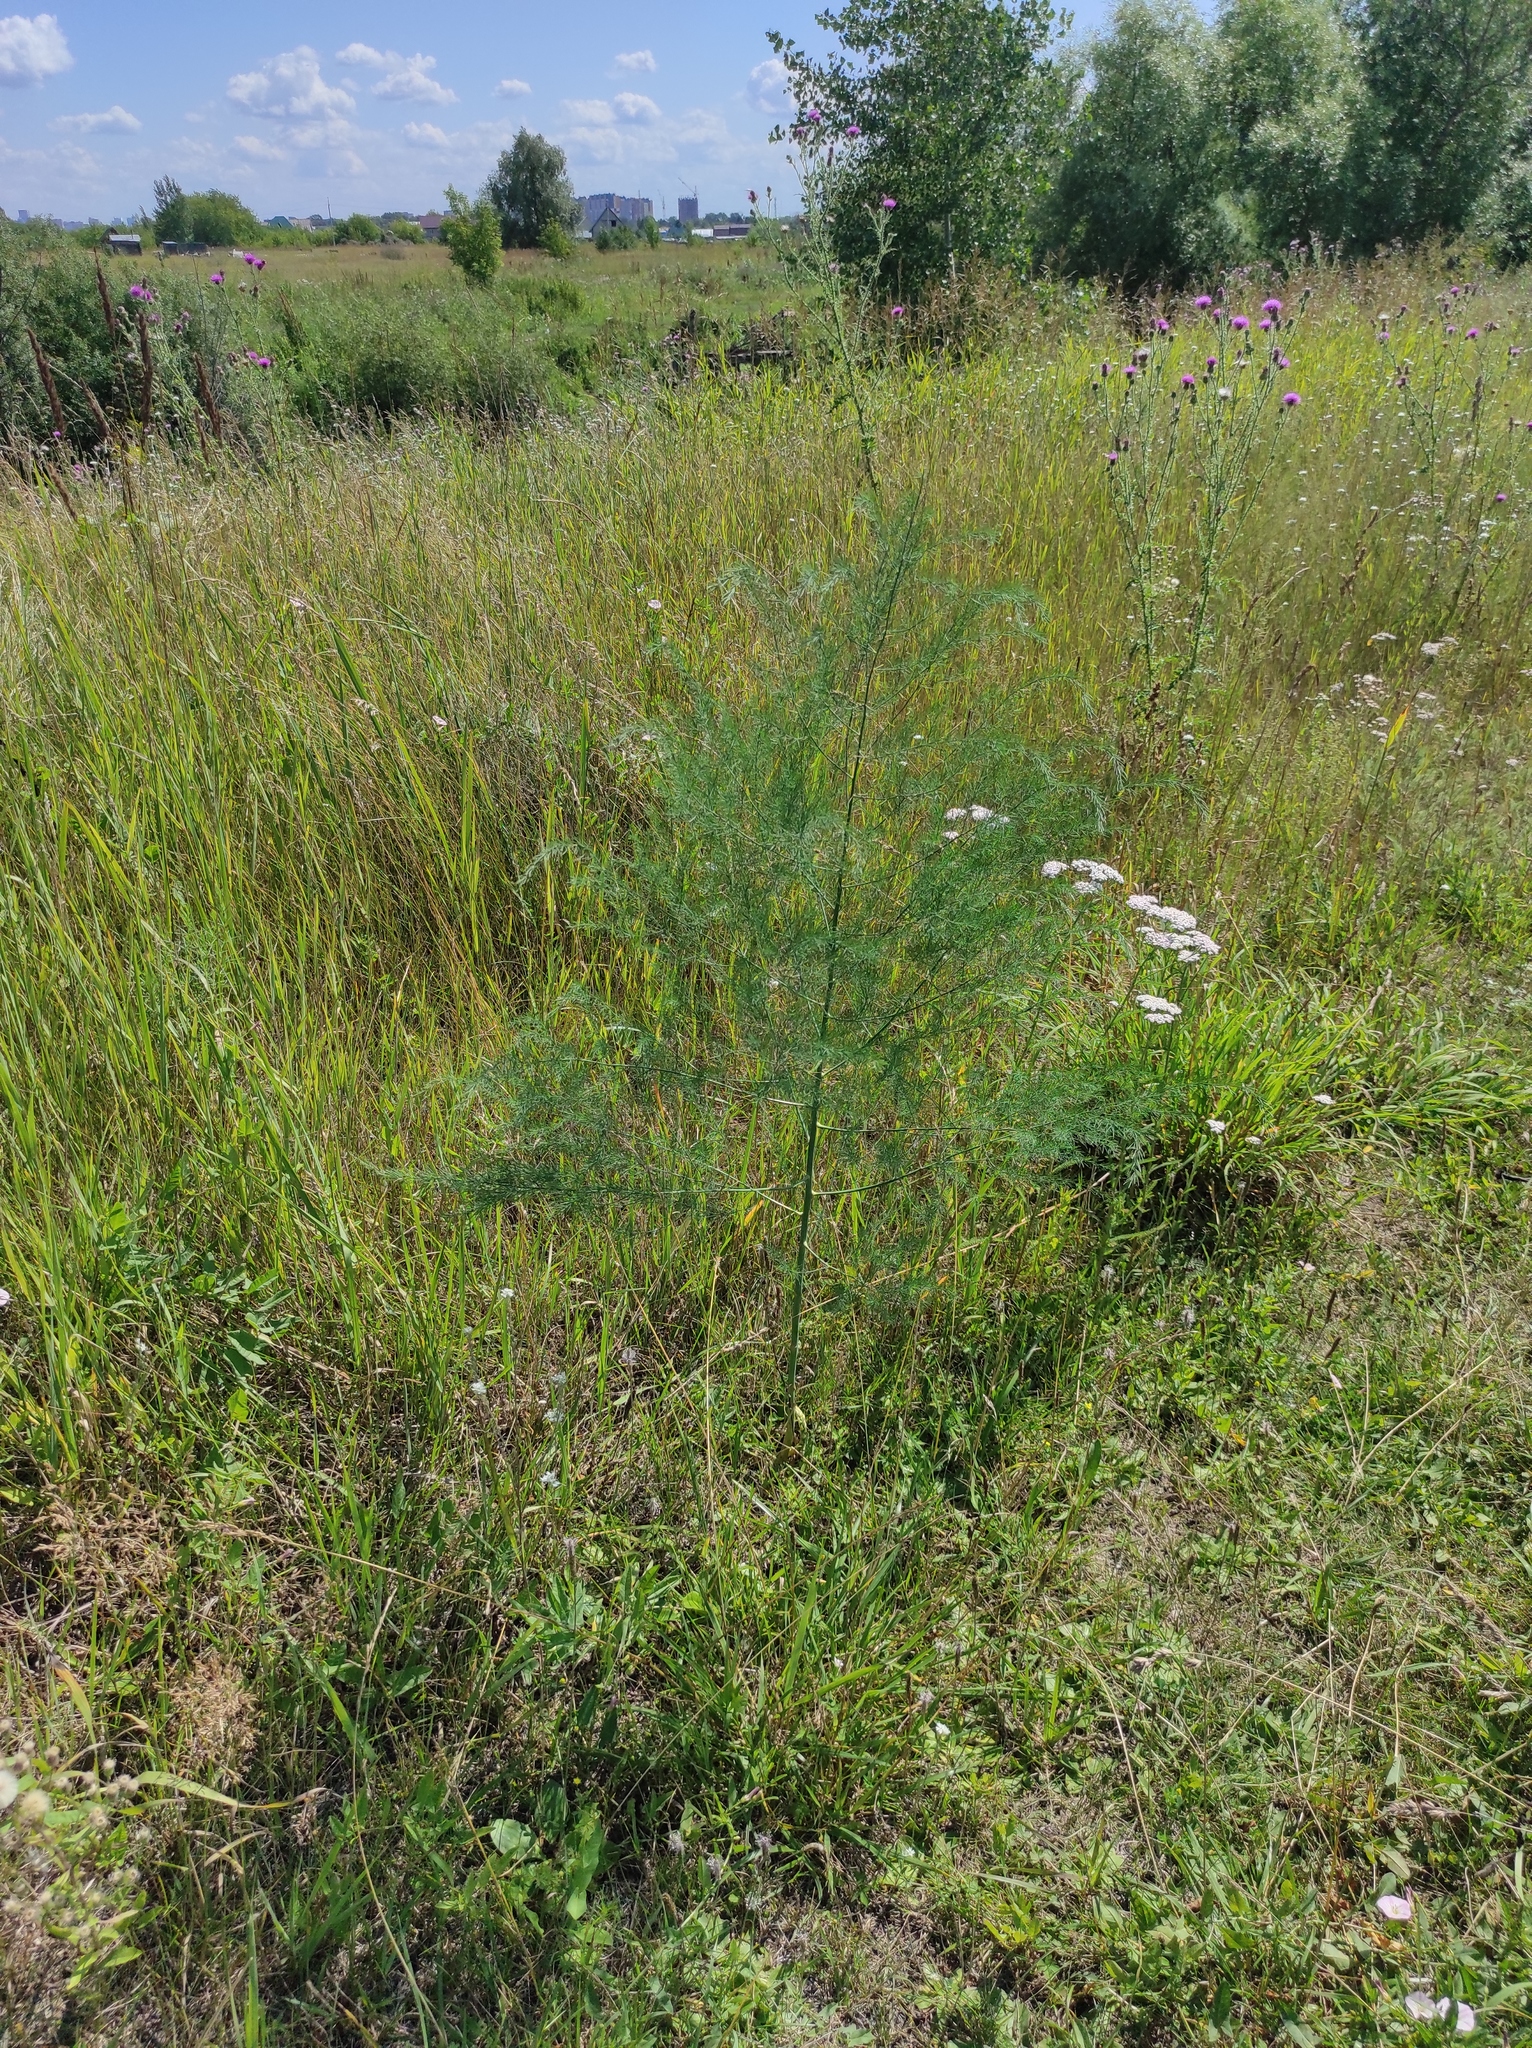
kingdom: Plantae
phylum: Tracheophyta
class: Liliopsida
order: Asparagales
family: Asparagaceae
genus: Asparagus
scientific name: Asparagus officinalis
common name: Garden asparagus
